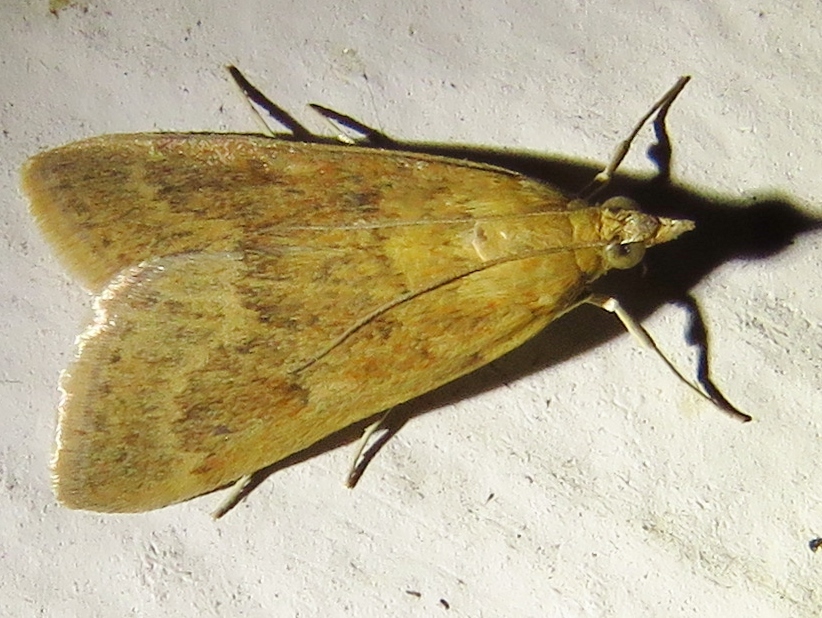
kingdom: Animalia
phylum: Arthropoda
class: Insecta
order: Lepidoptera
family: Crambidae
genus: Achyra
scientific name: Achyra rantalis
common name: Garden webworm
